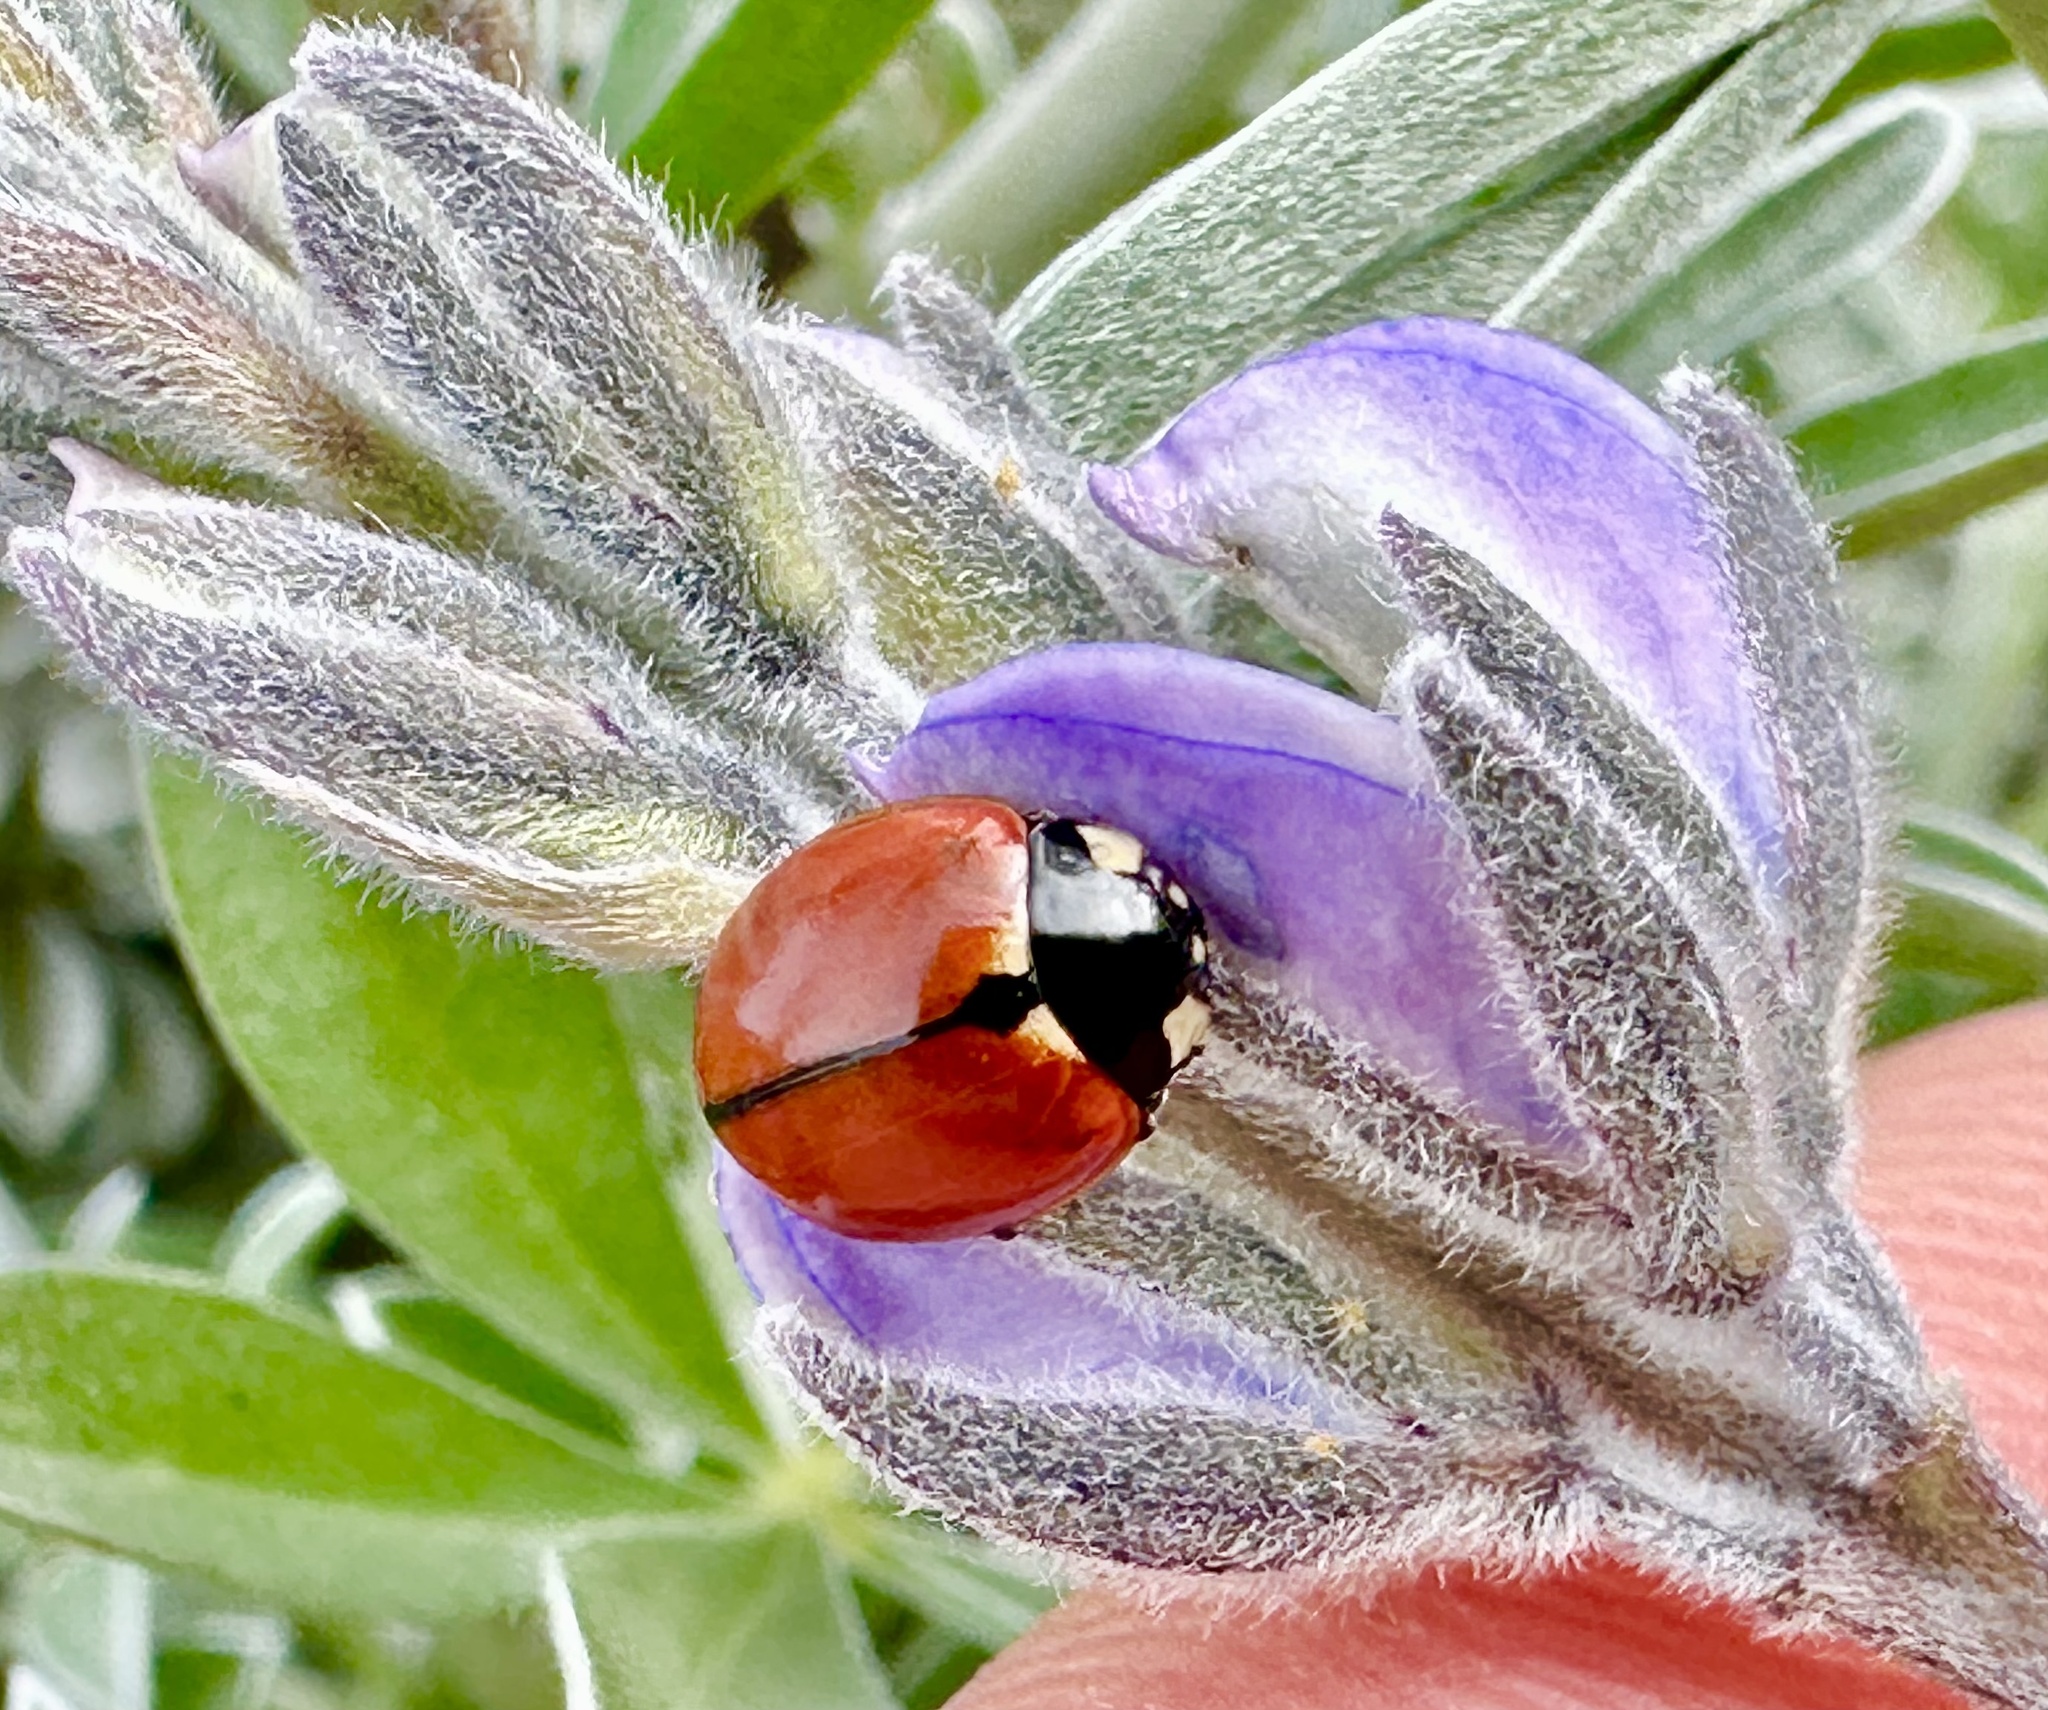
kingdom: Animalia
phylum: Arthropoda
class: Insecta
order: Coleoptera
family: Coccinellidae
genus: Coccinella
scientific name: Coccinella californica
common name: Lady beetle
